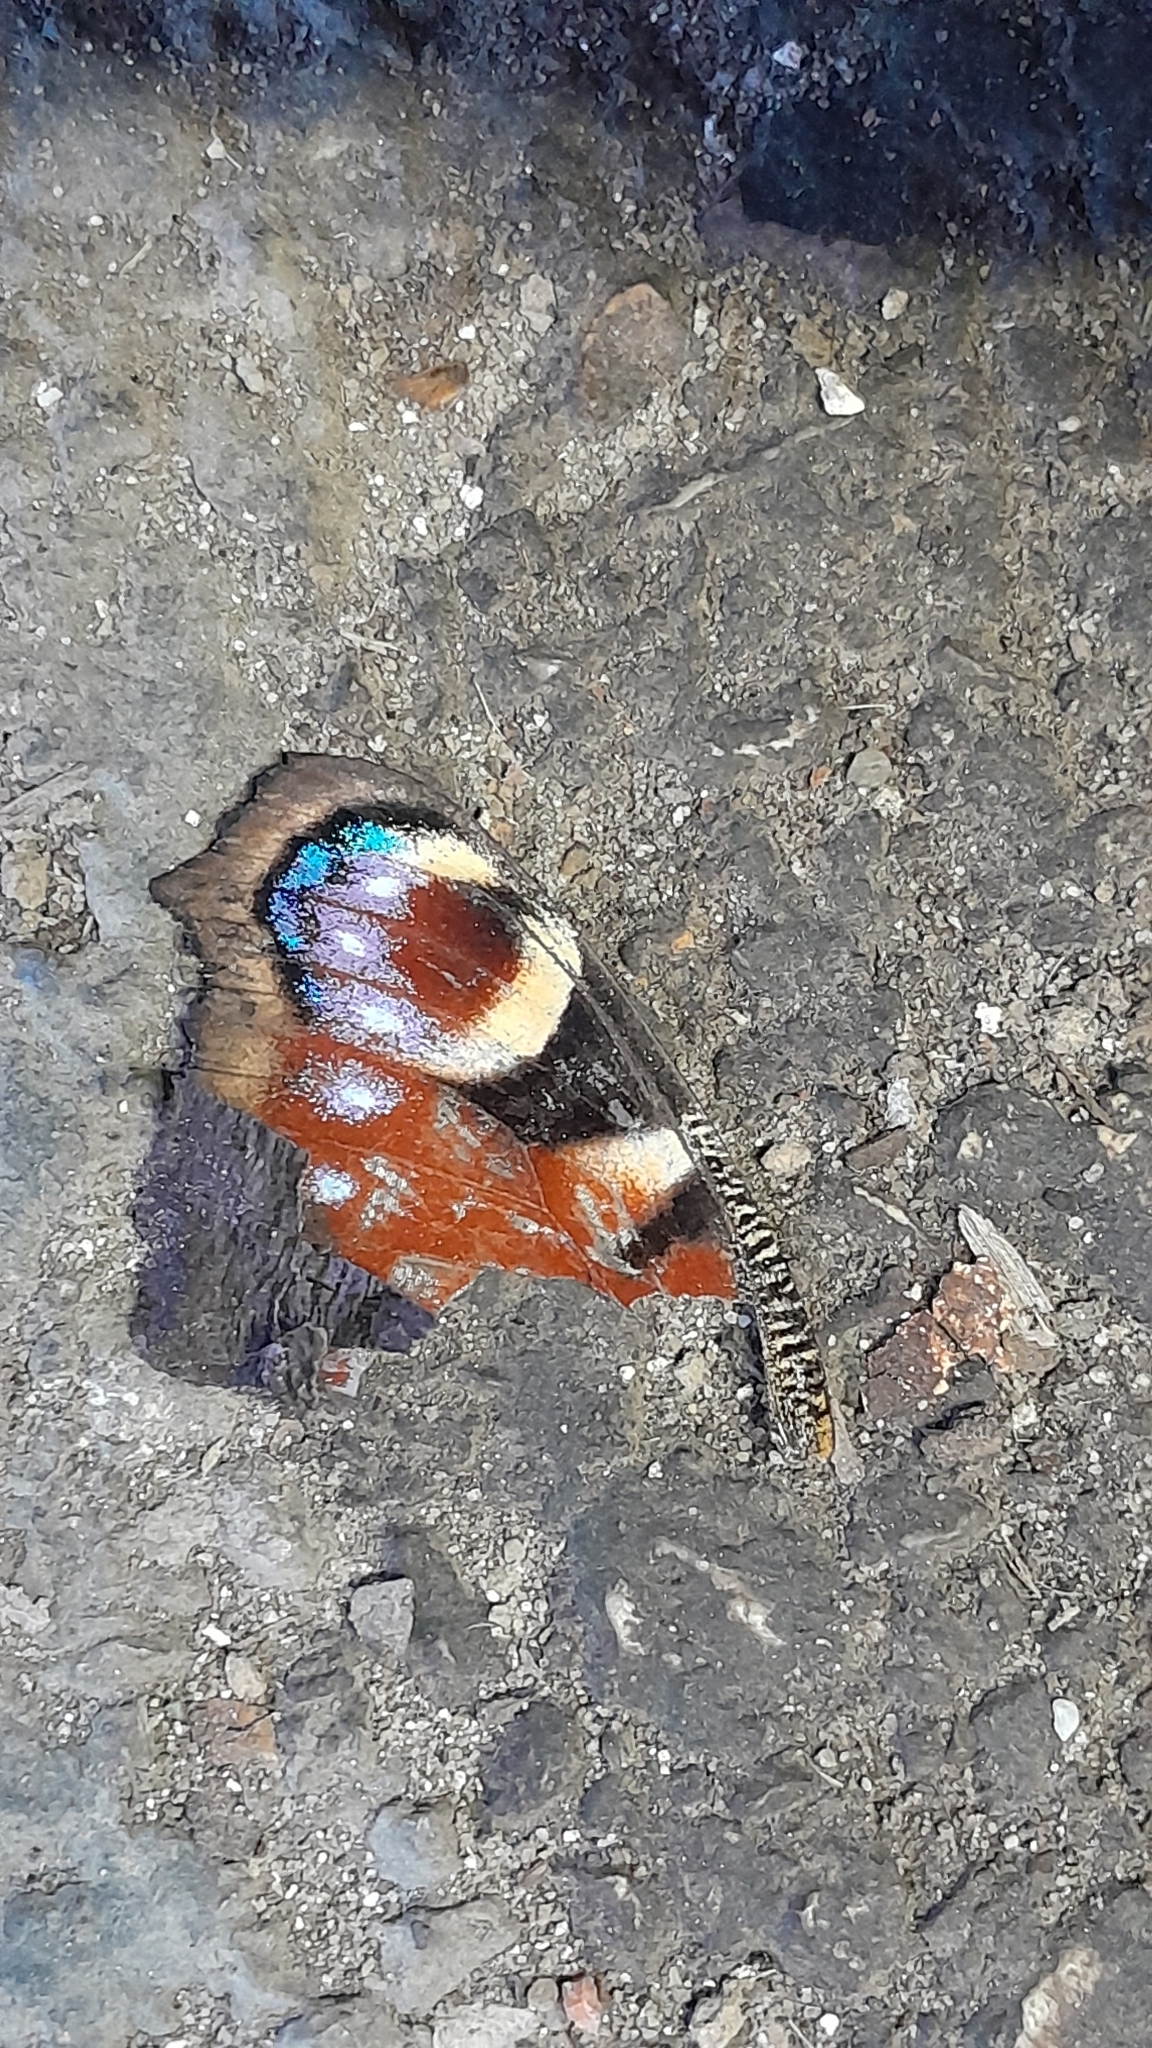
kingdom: Animalia
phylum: Arthropoda
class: Insecta
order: Lepidoptera
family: Nymphalidae
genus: Aglais
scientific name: Aglais io
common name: Peacock
